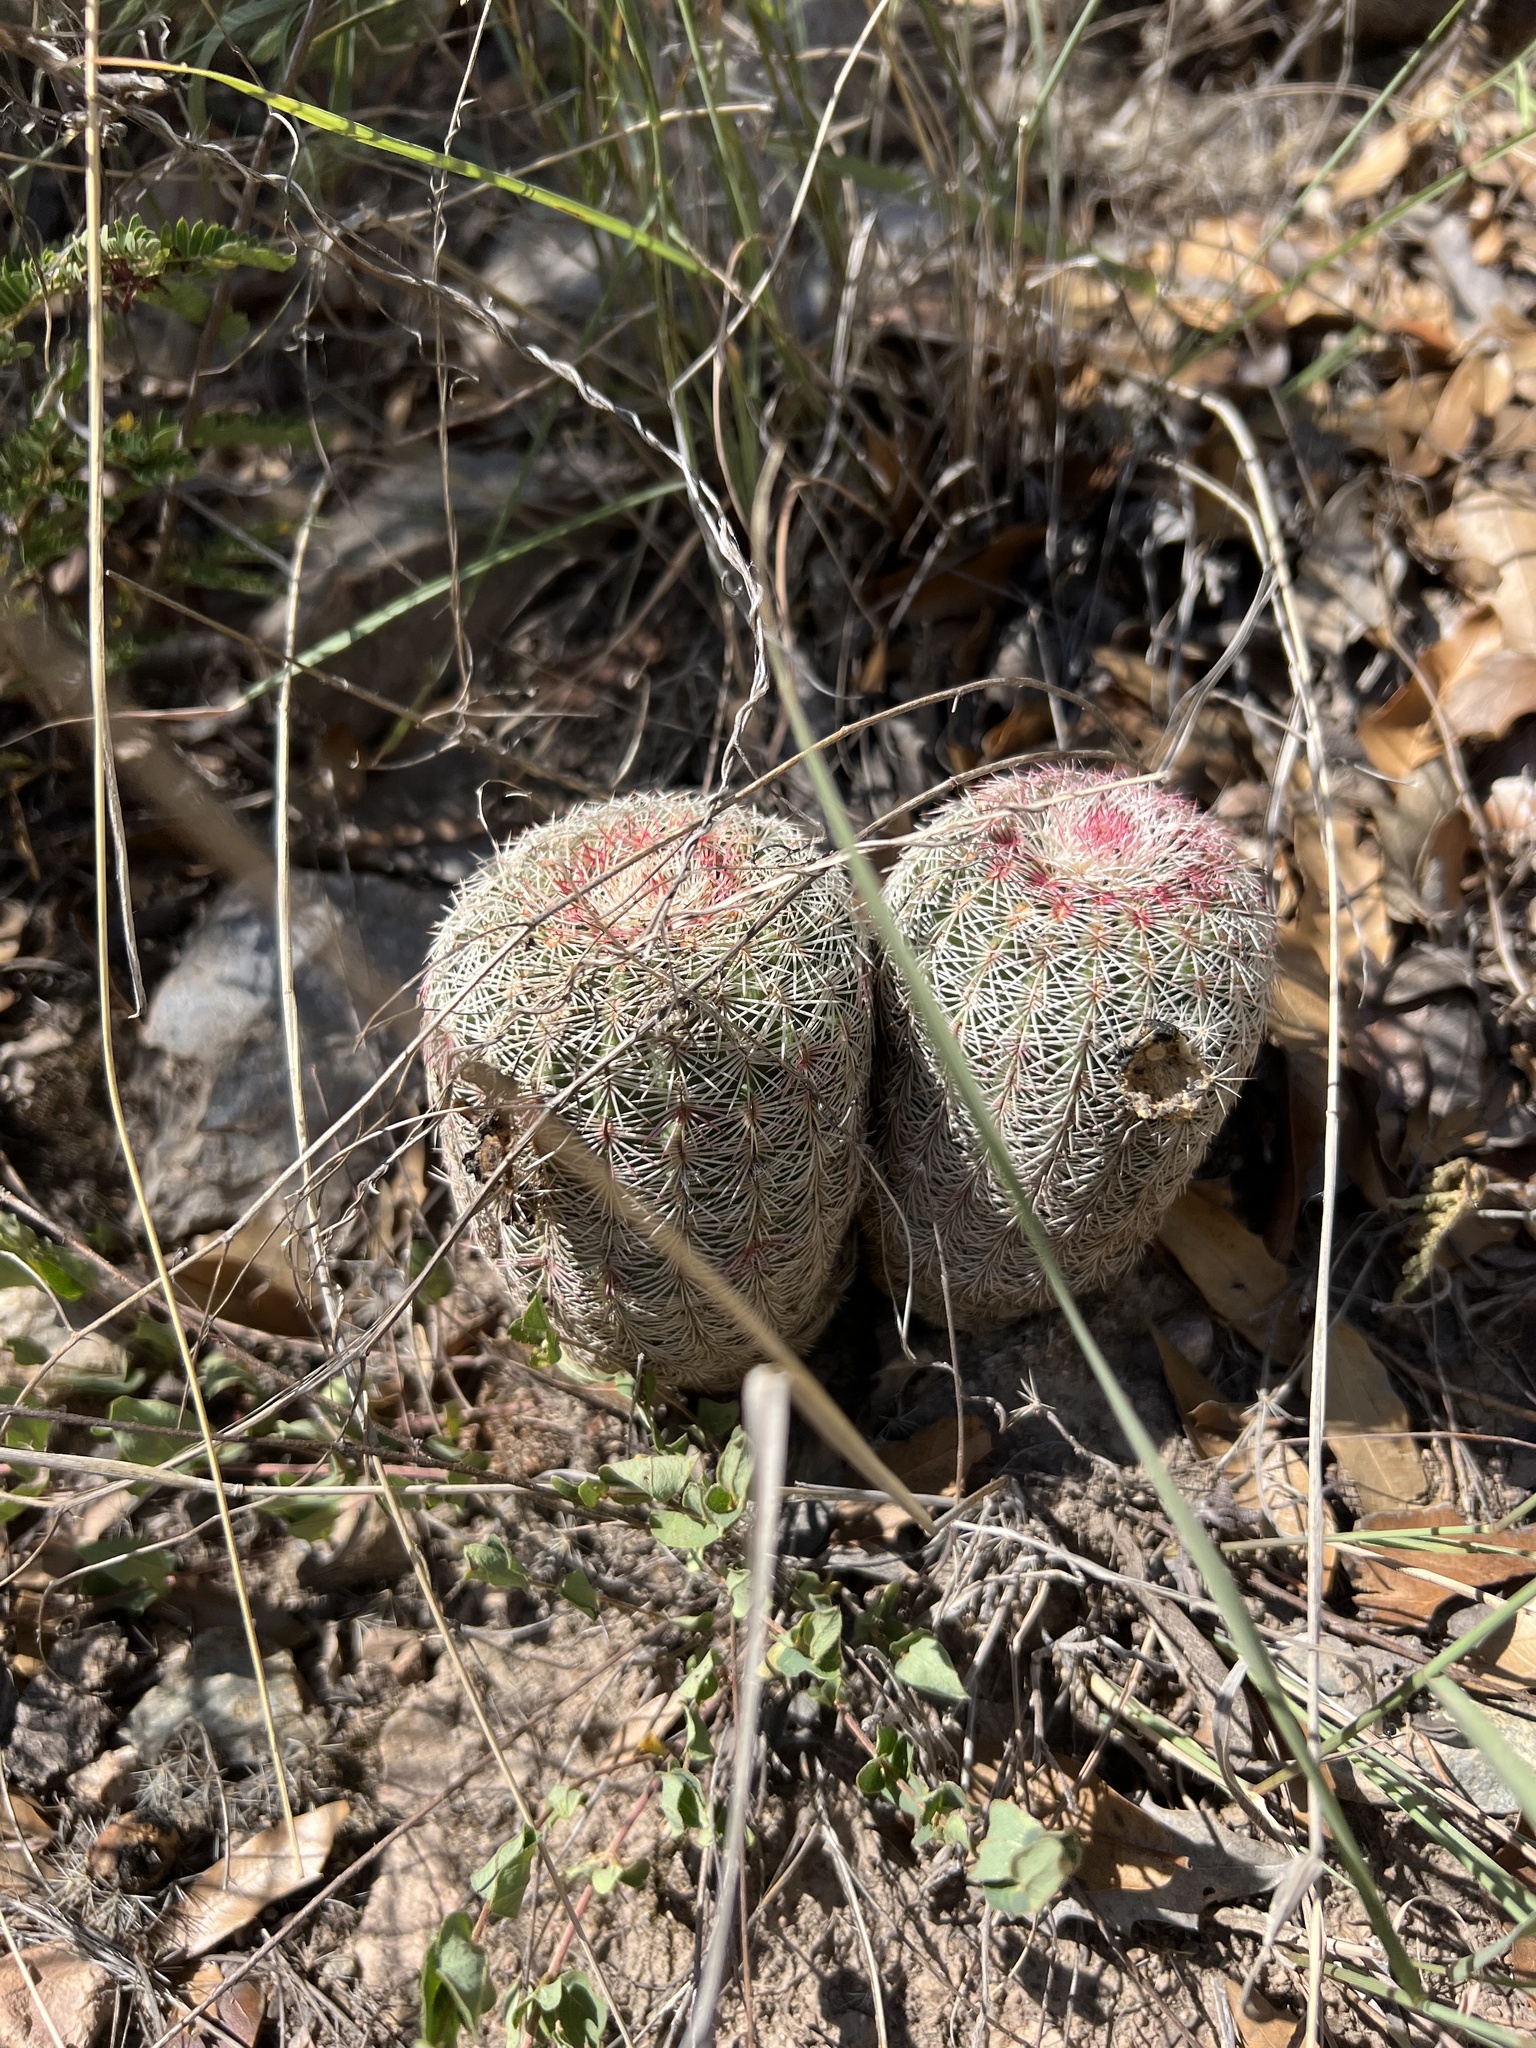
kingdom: Plantae
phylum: Tracheophyta
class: Magnoliopsida
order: Caryophyllales
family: Cactaceae
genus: Echinocereus
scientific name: Echinocereus rigidissimus
